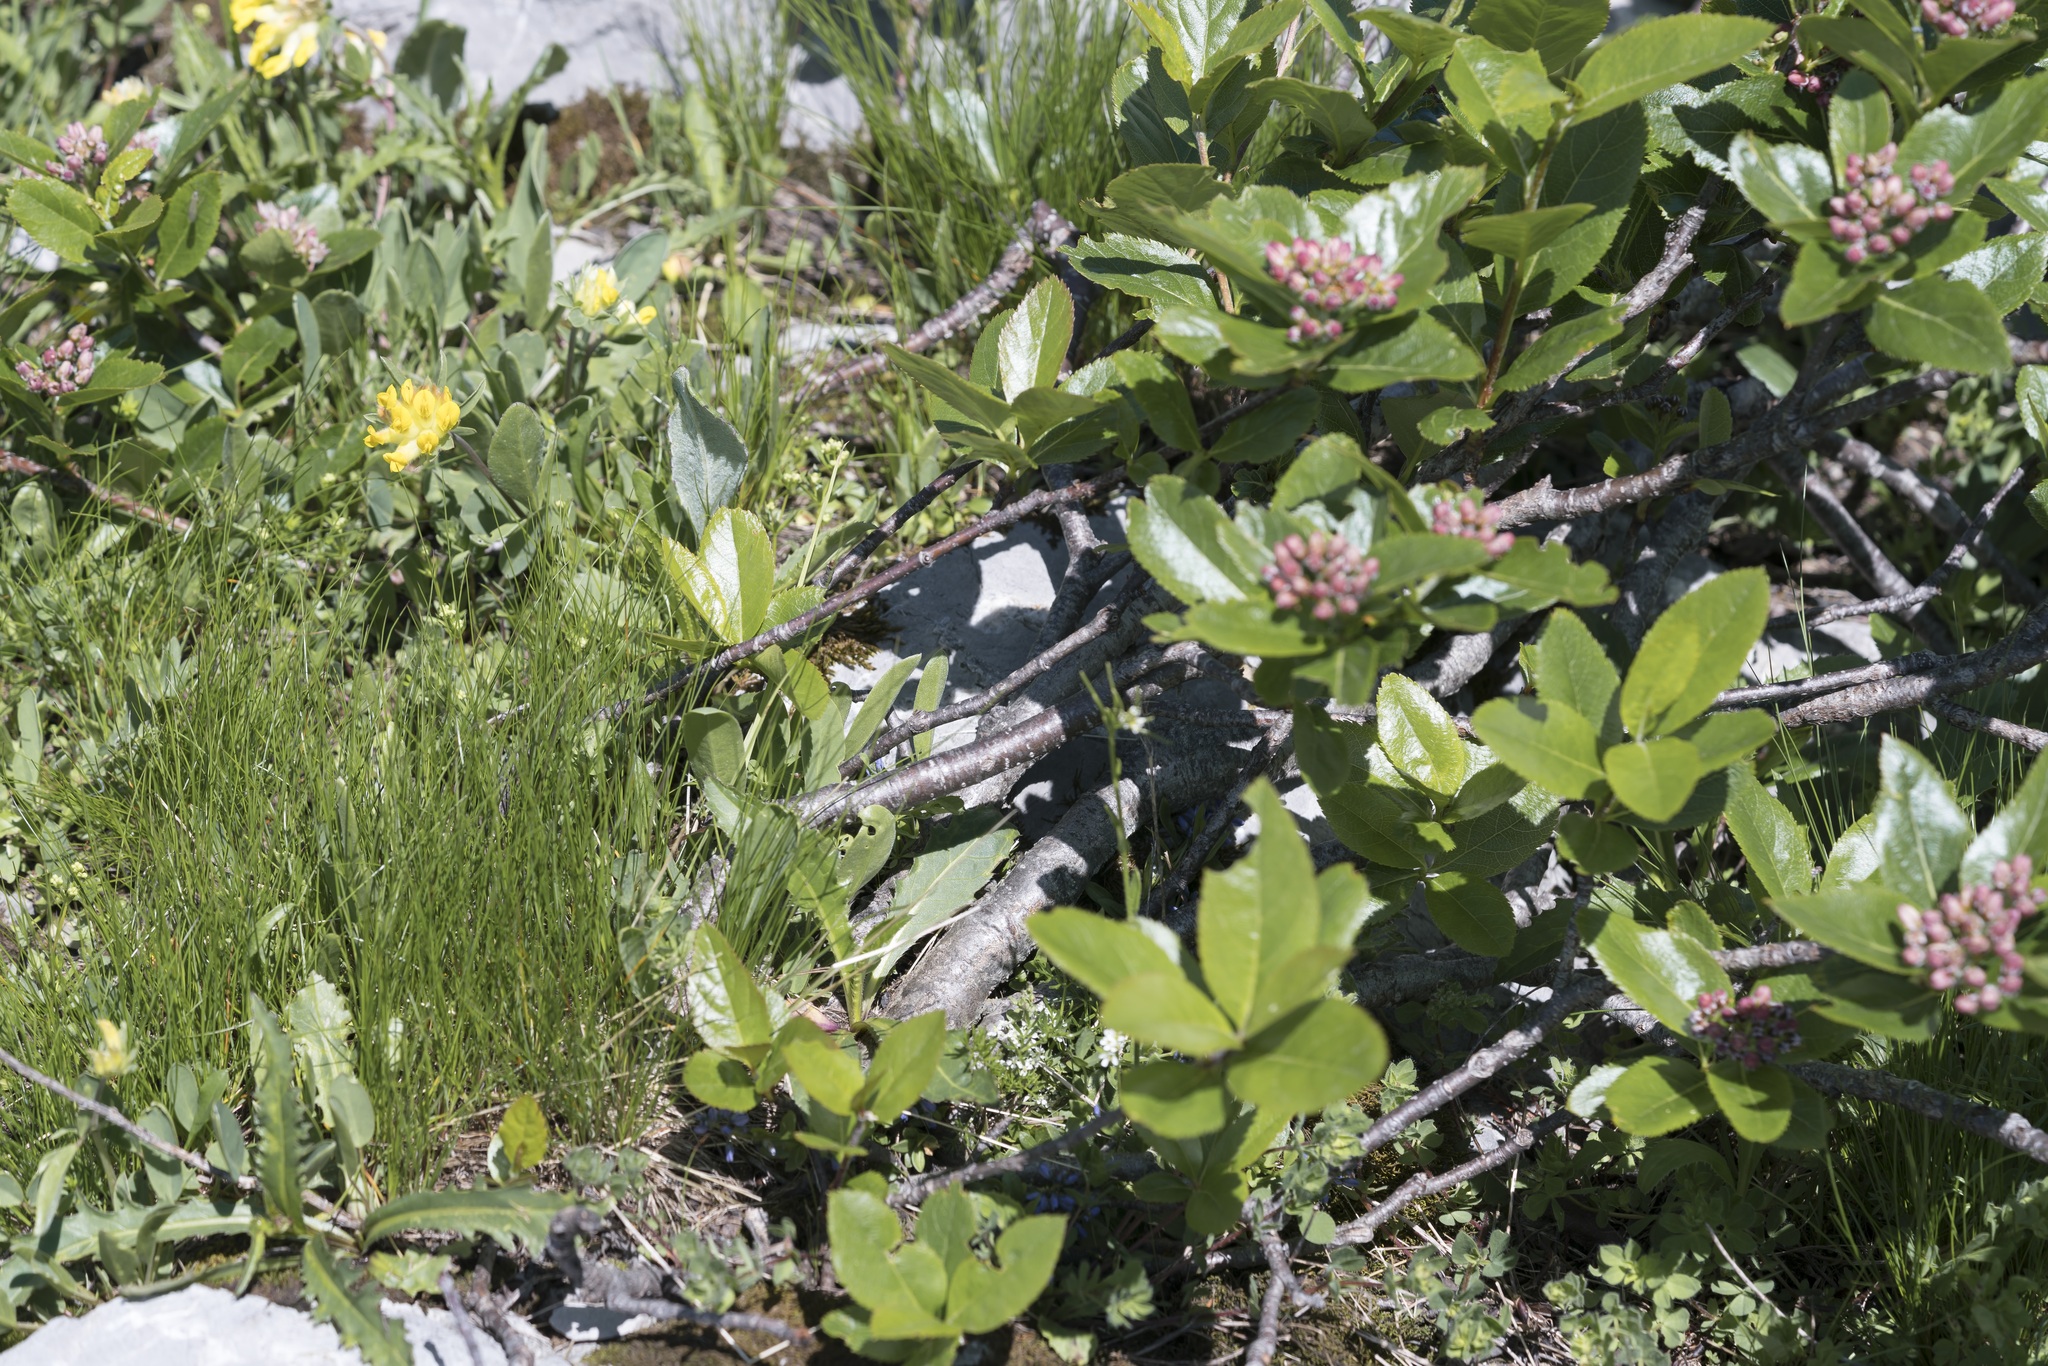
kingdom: Plantae
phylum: Tracheophyta
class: Magnoliopsida
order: Rosales
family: Rosaceae
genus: Chamaemespilus
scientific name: Chamaemespilus alpina
